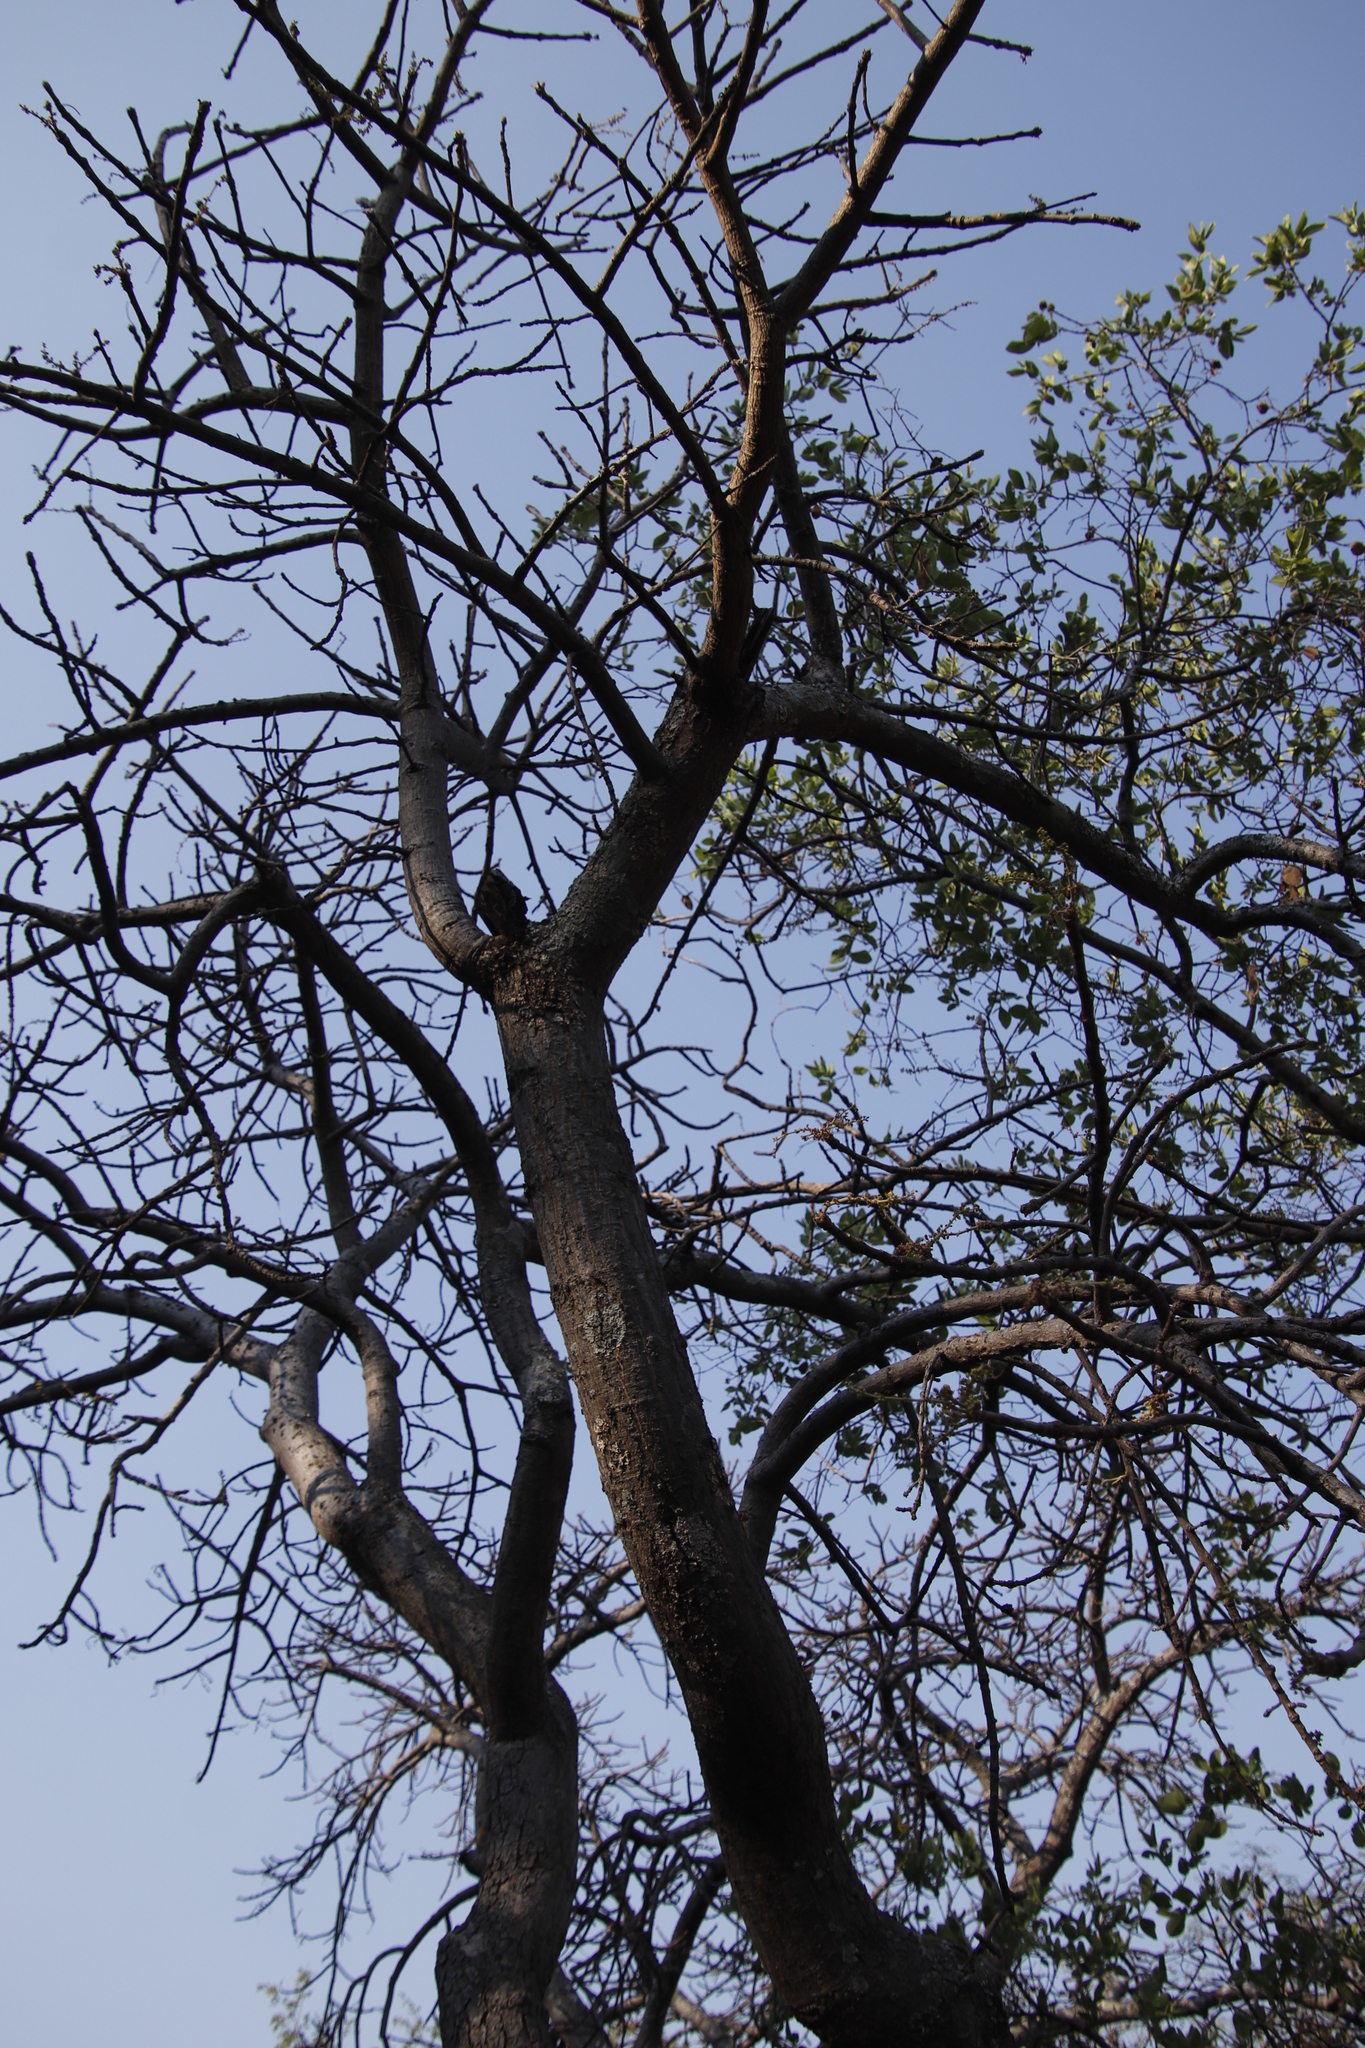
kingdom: Plantae
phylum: Tracheophyta
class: Magnoliopsida
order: Sapindales
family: Anacardiaceae
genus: Lannea
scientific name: Lannea discolor
